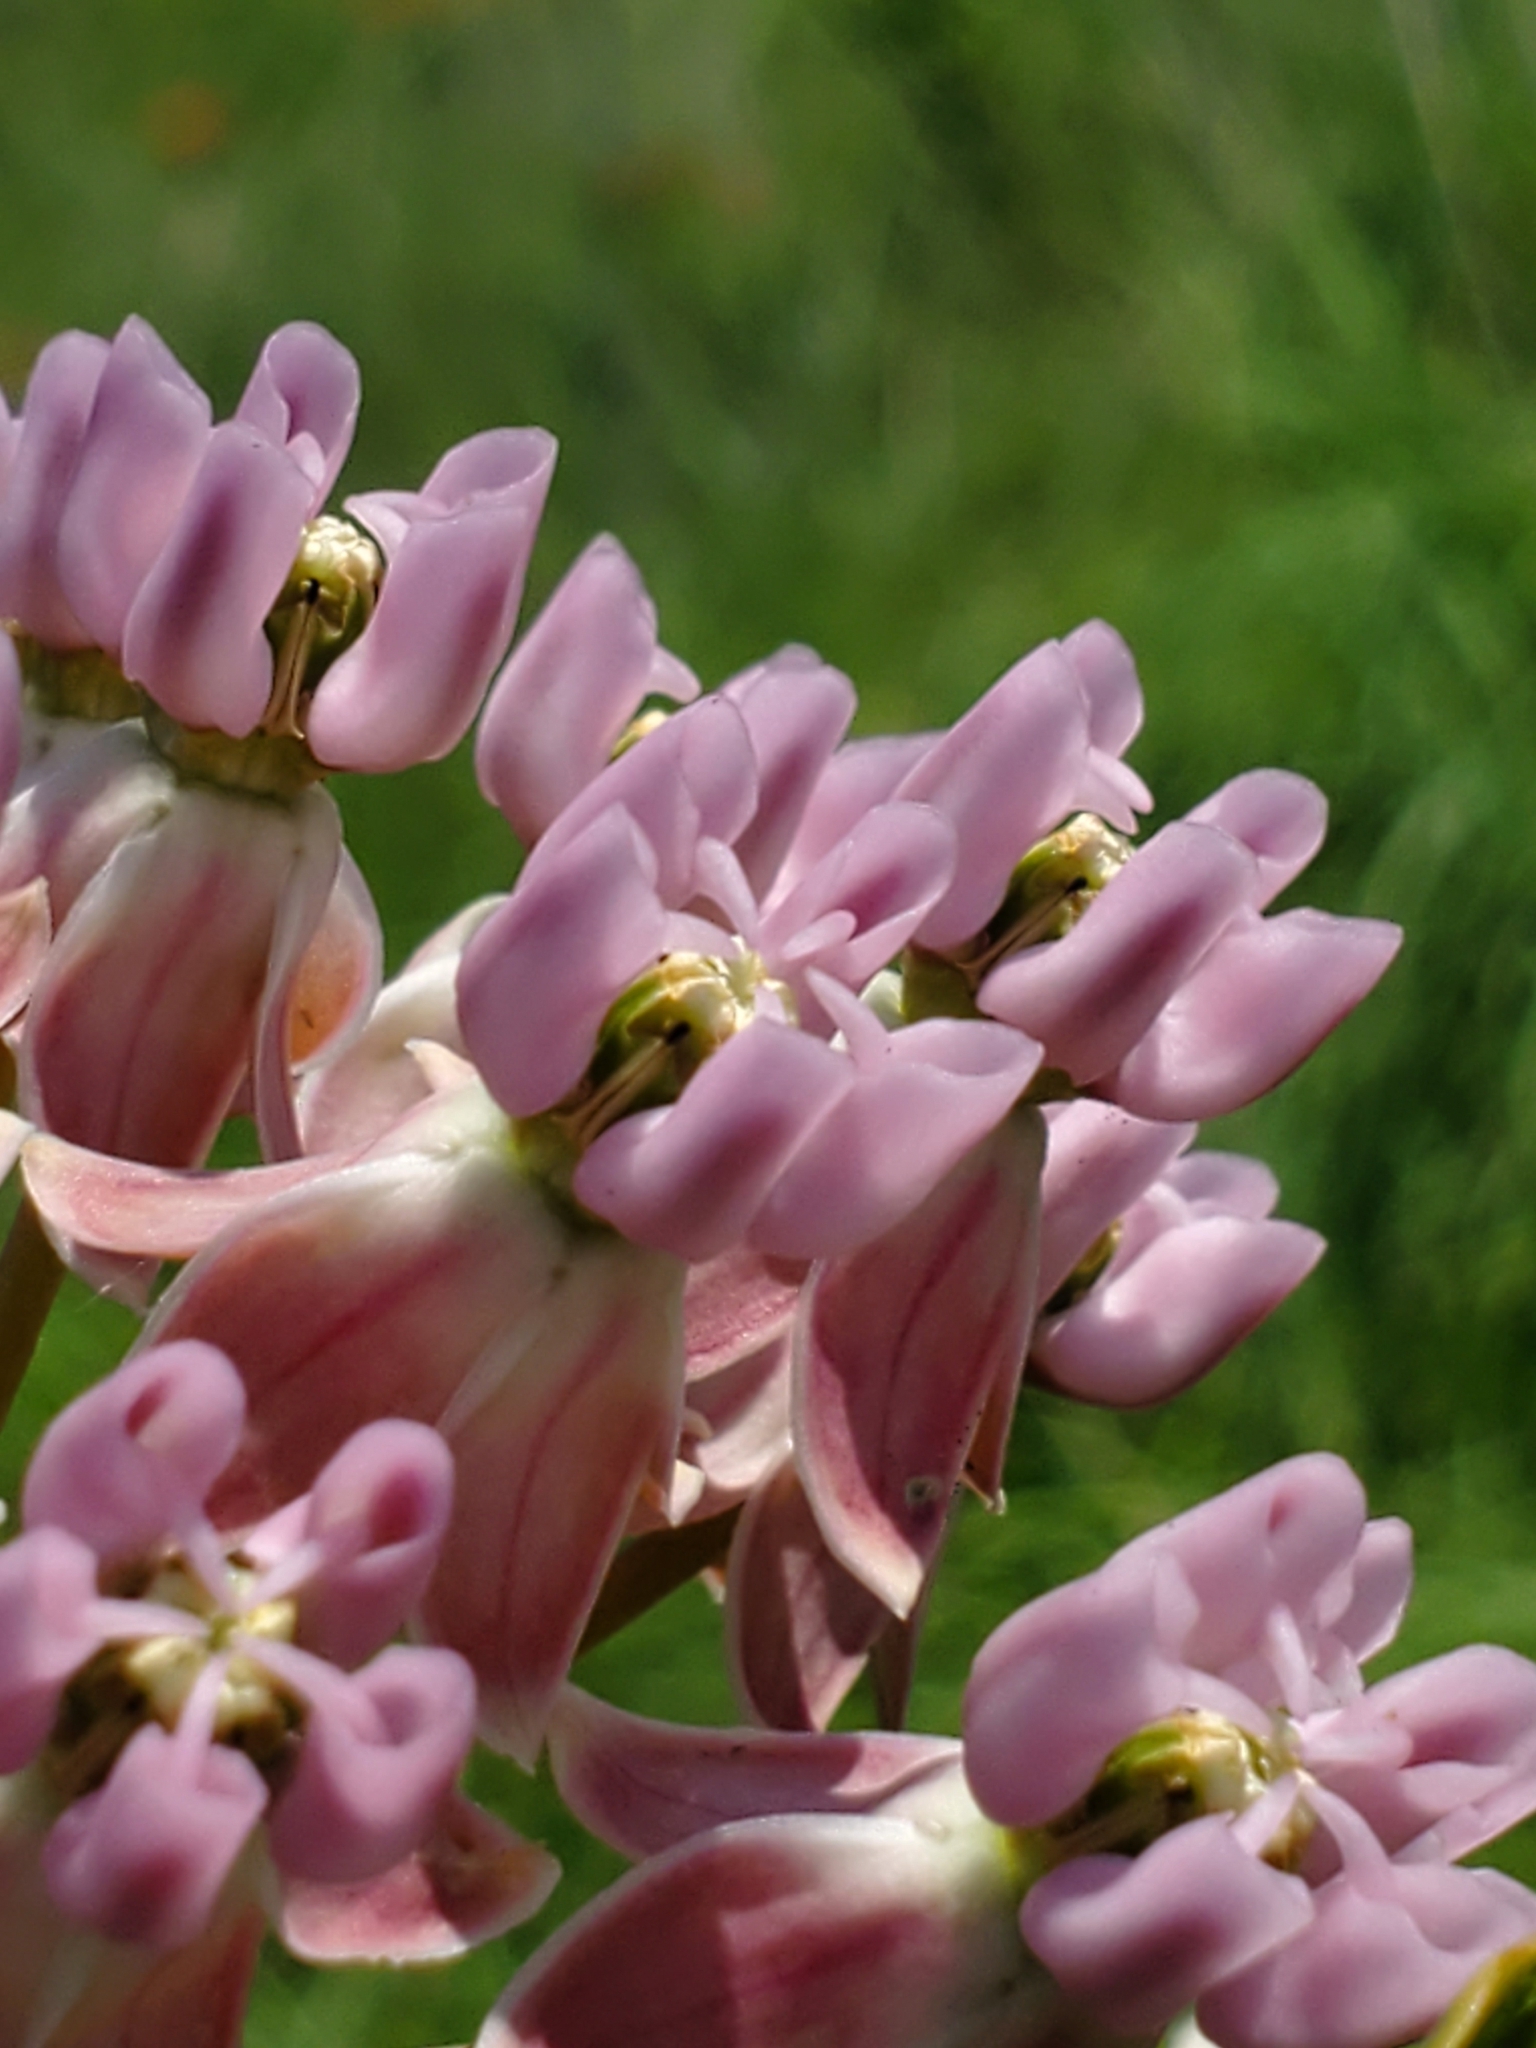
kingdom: Plantae
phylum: Tracheophyta
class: Magnoliopsida
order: Gentianales
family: Apocynaceae
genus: Asclepias
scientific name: Asclepias sullivantii
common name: Prairie milkweed
